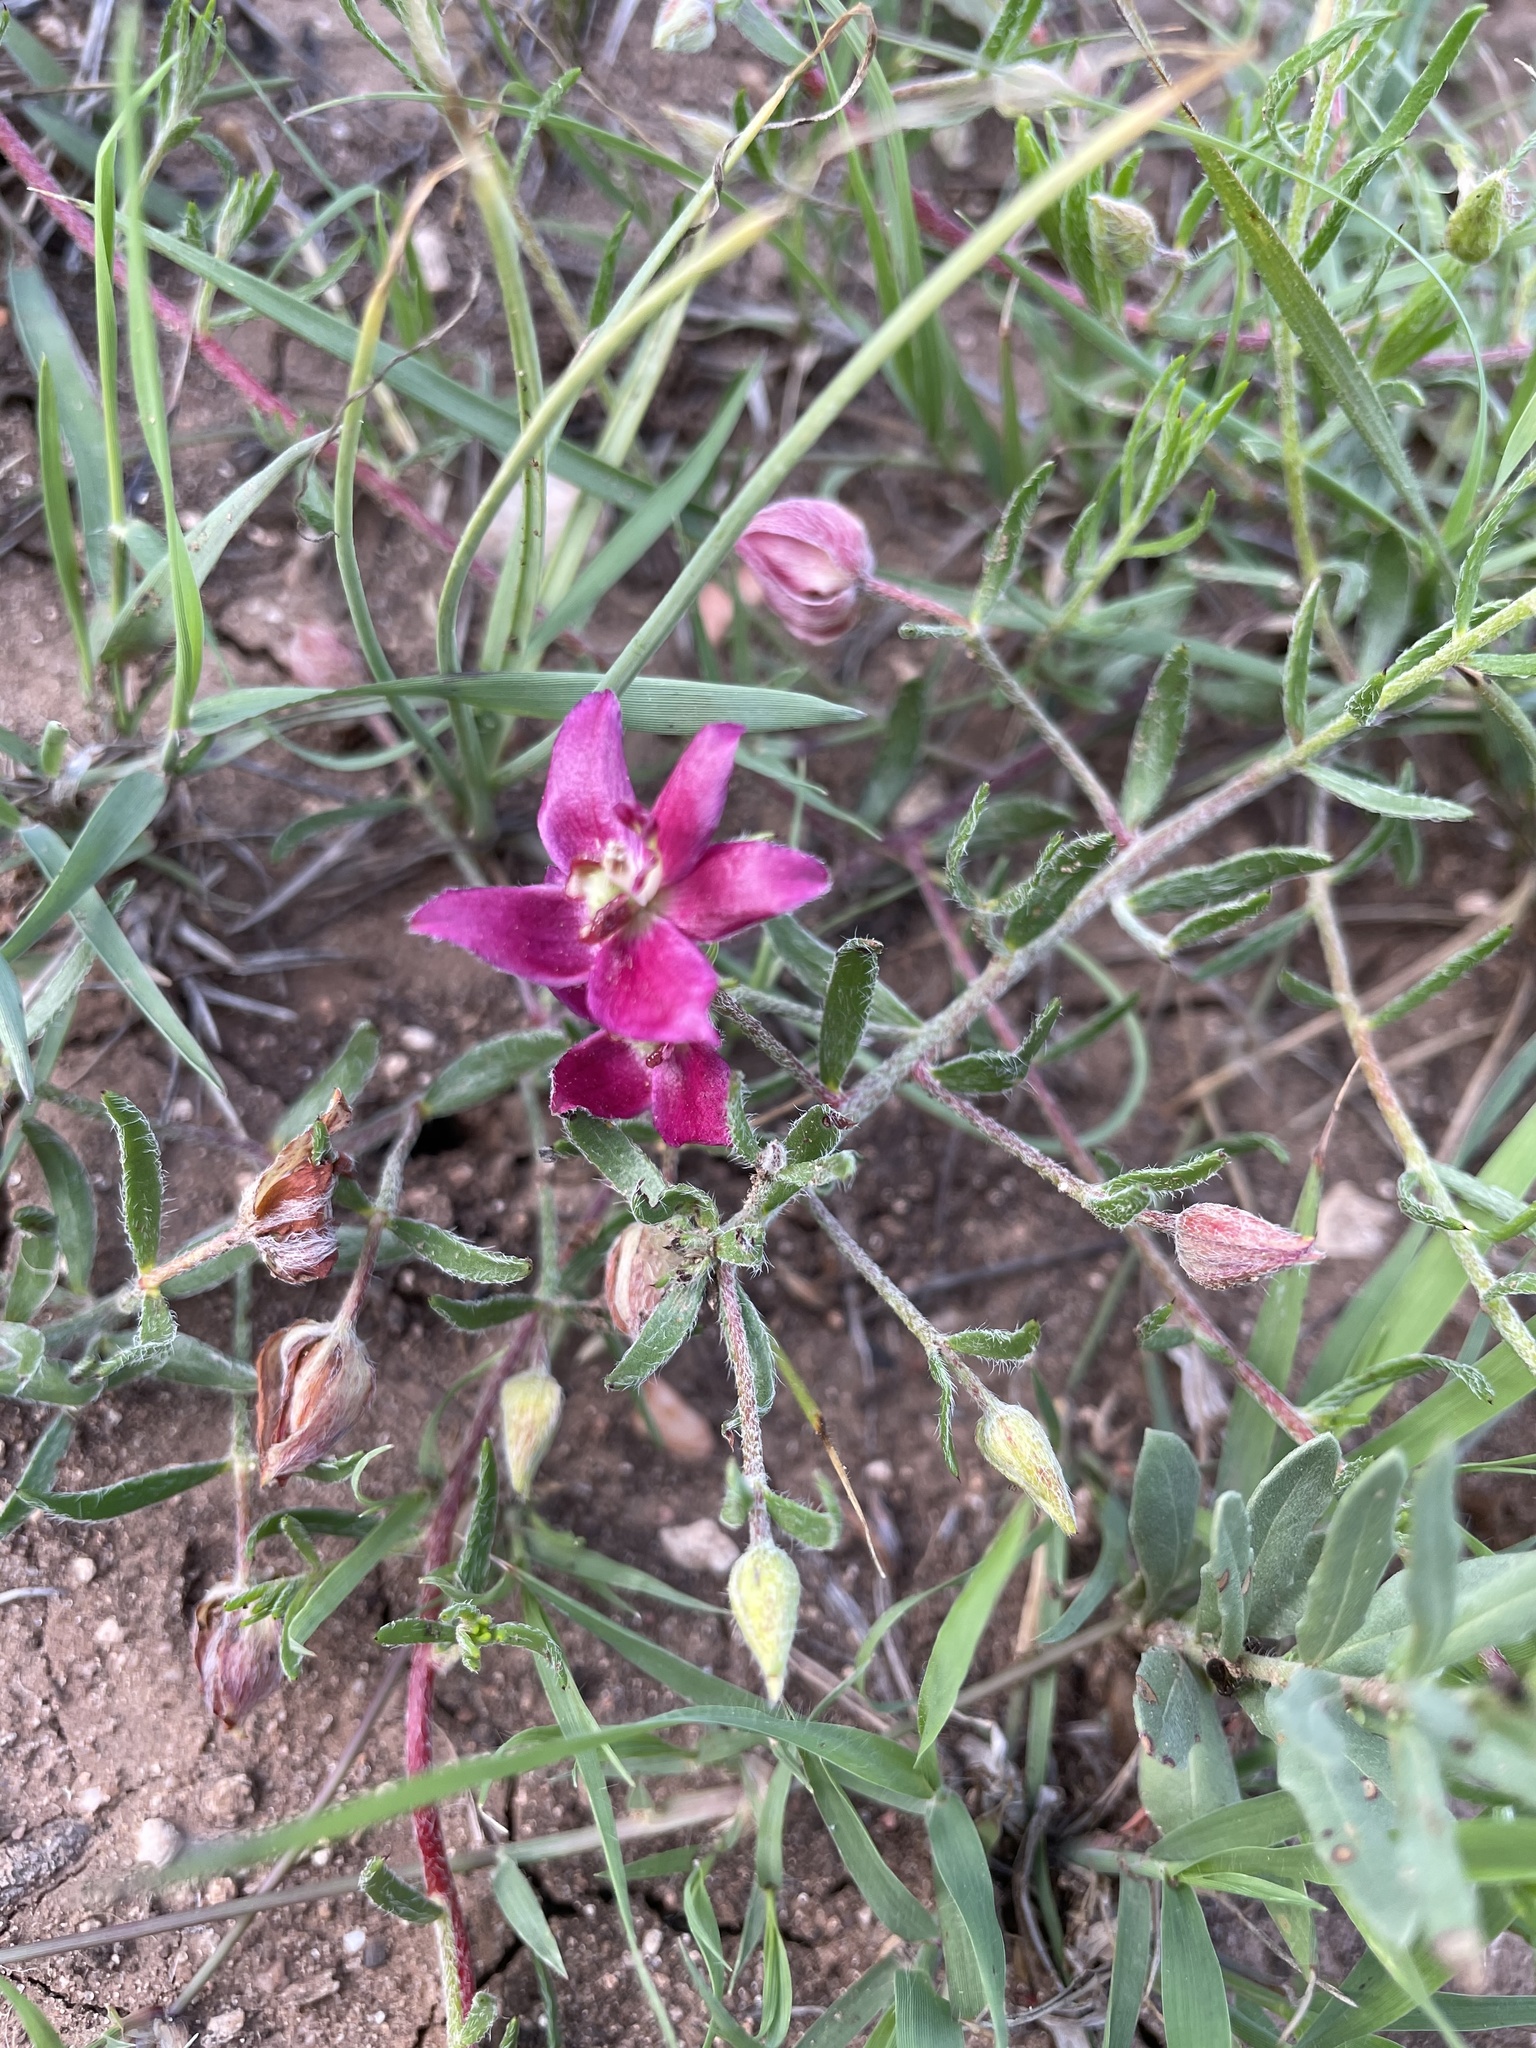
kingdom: Plantae
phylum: Tracheophyta
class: Magnoliopsida
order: Zygophyllales
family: Krameriaceae
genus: Krameria
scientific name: Krameria lanceolata
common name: Ratany
